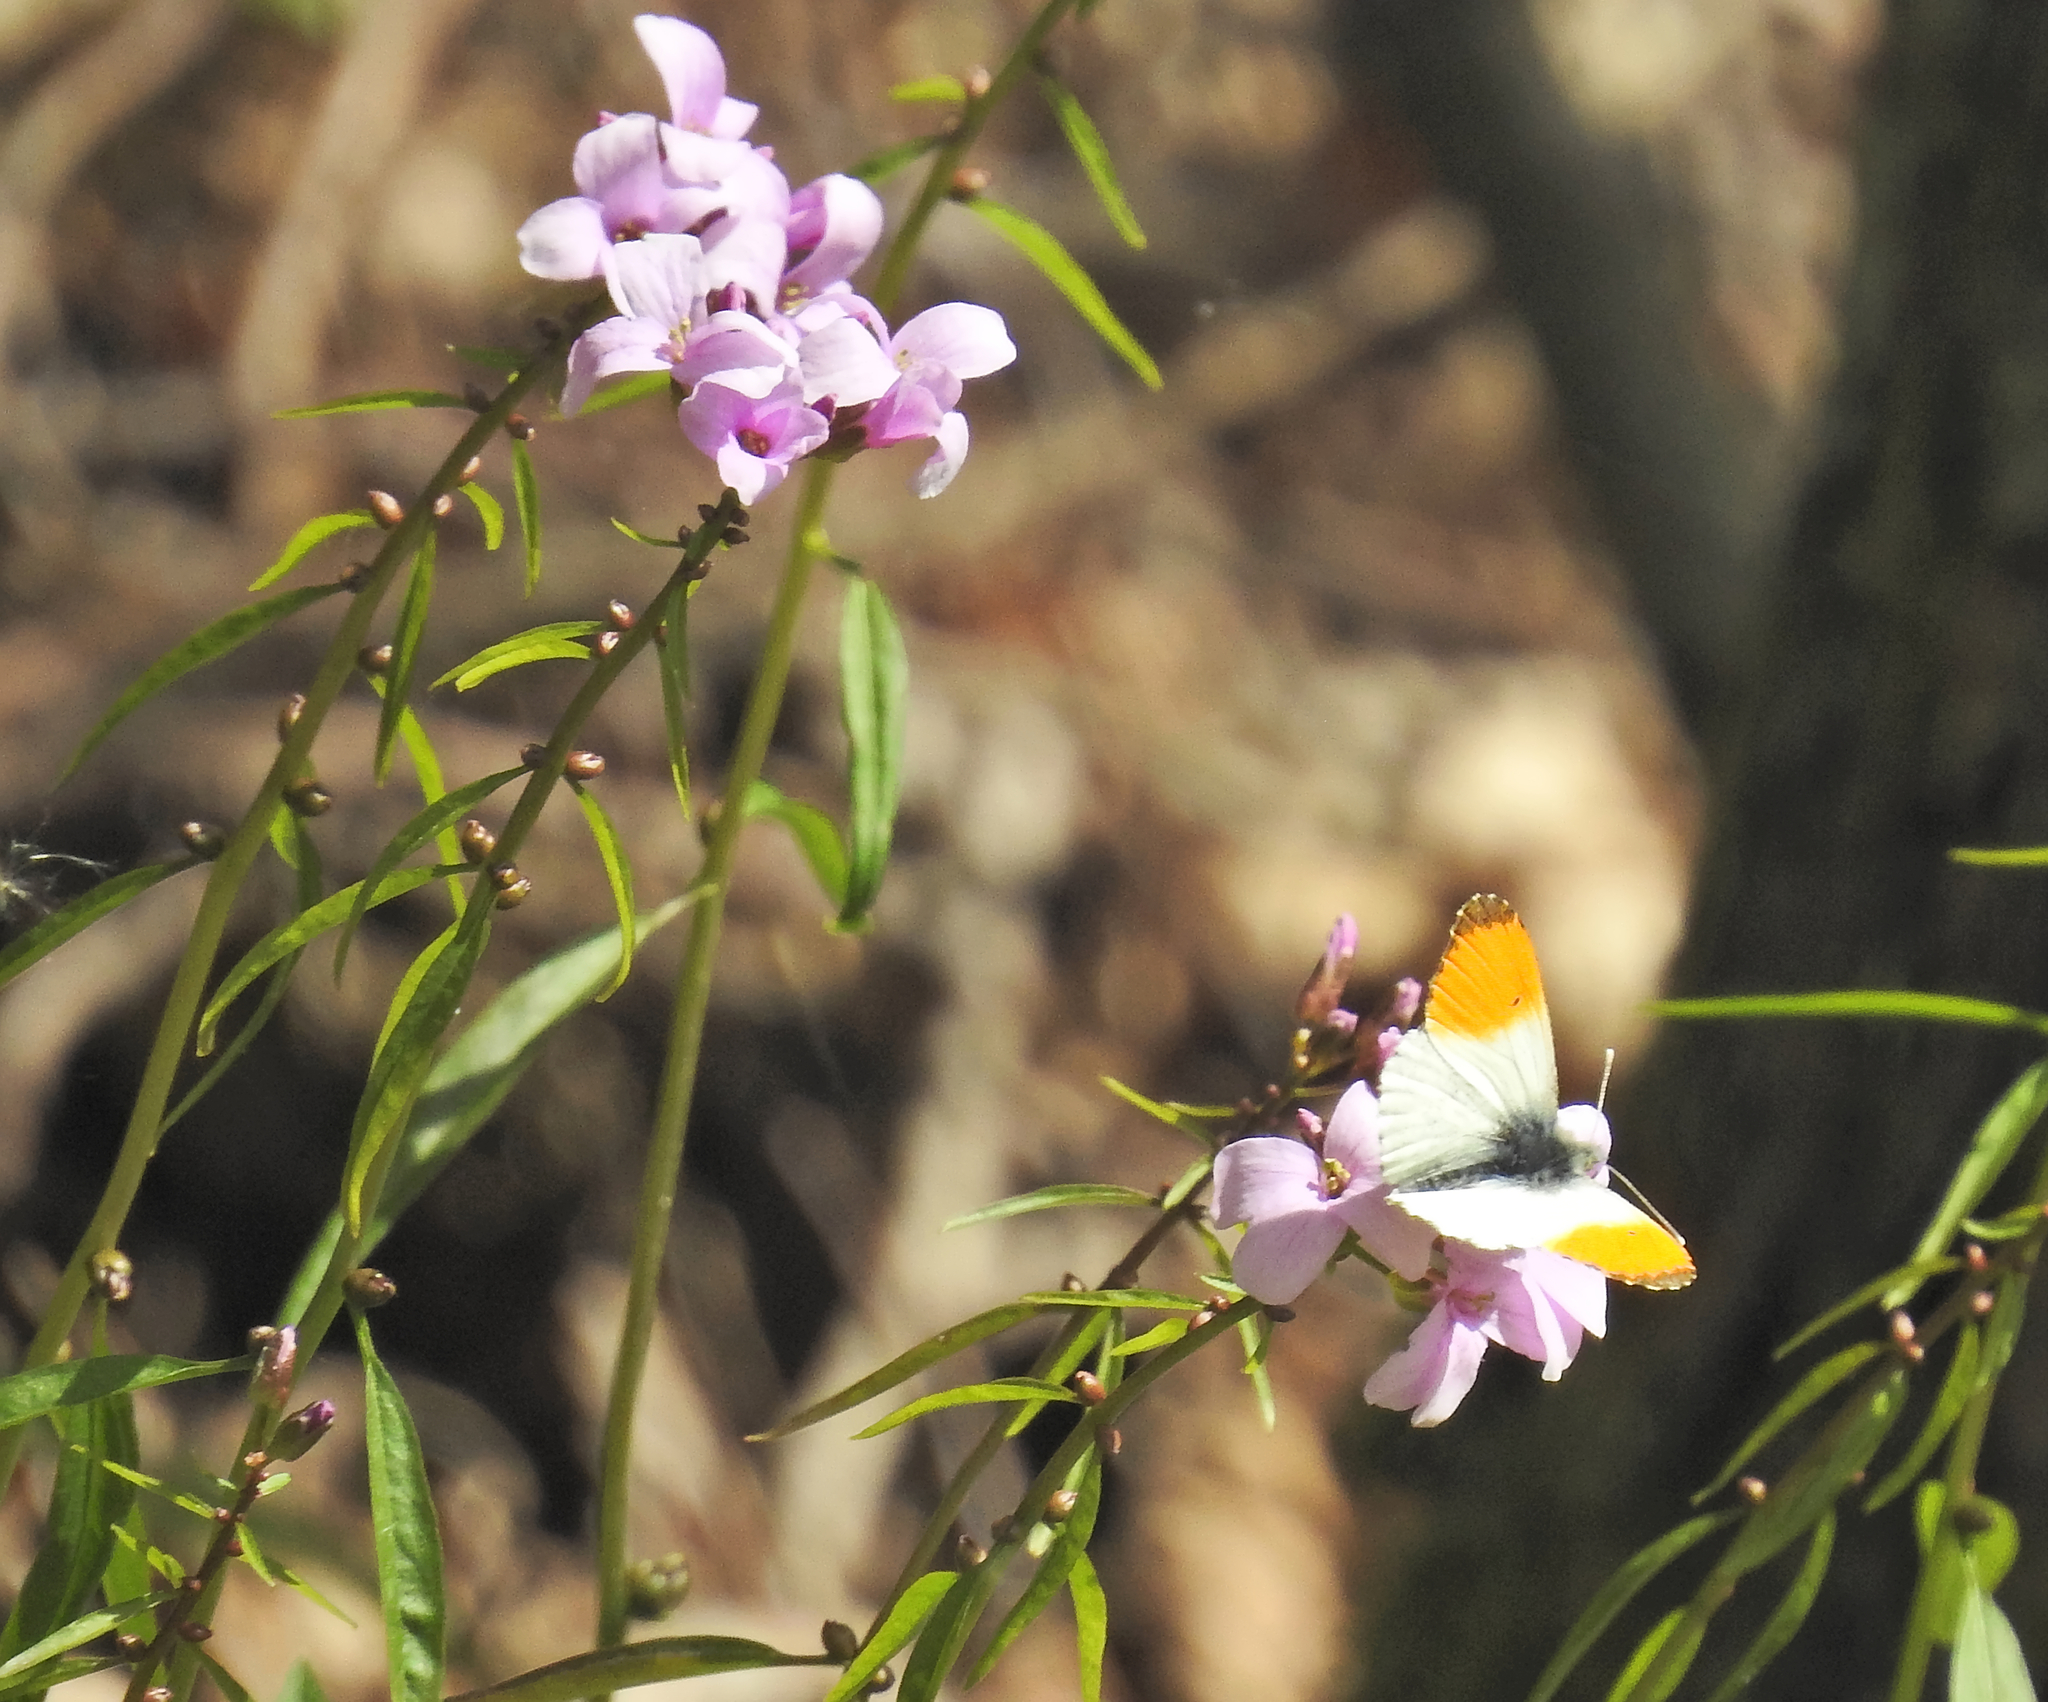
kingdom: Animalia
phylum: Arthropoda
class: Insecta
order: Lepidoptera
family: Pieridae
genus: Anthocharis
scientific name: Anthocharis cardamines
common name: Orange-tip
